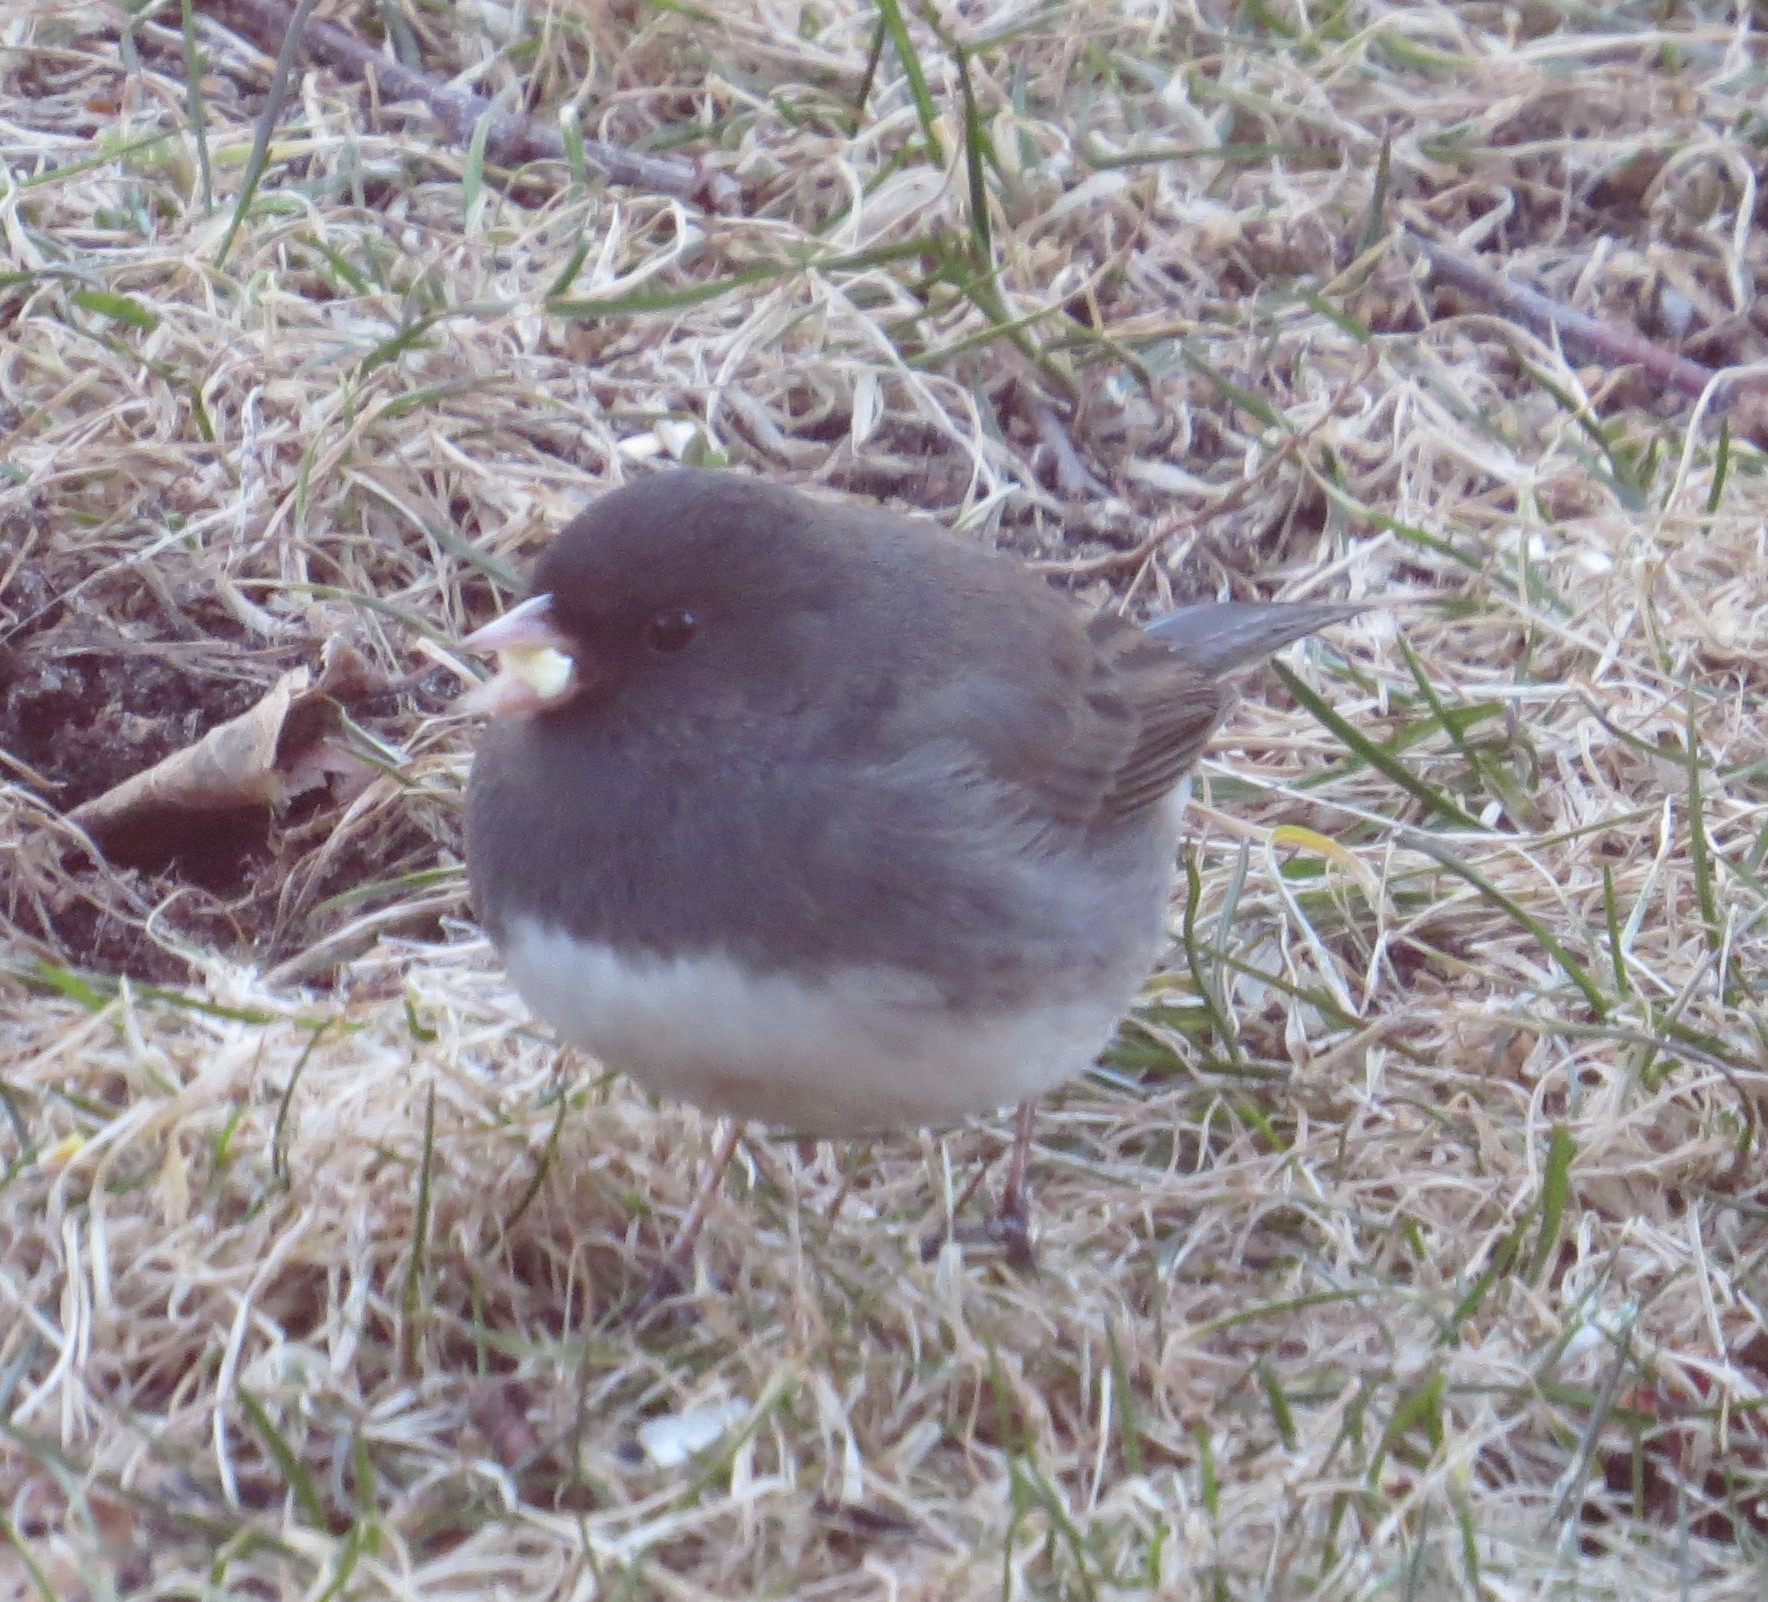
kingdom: Animalia
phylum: Chordata
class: Aves
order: Passeriformes
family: Passerellidae
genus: Junco
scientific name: Junco hyemalis
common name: Dark-eyed junco
